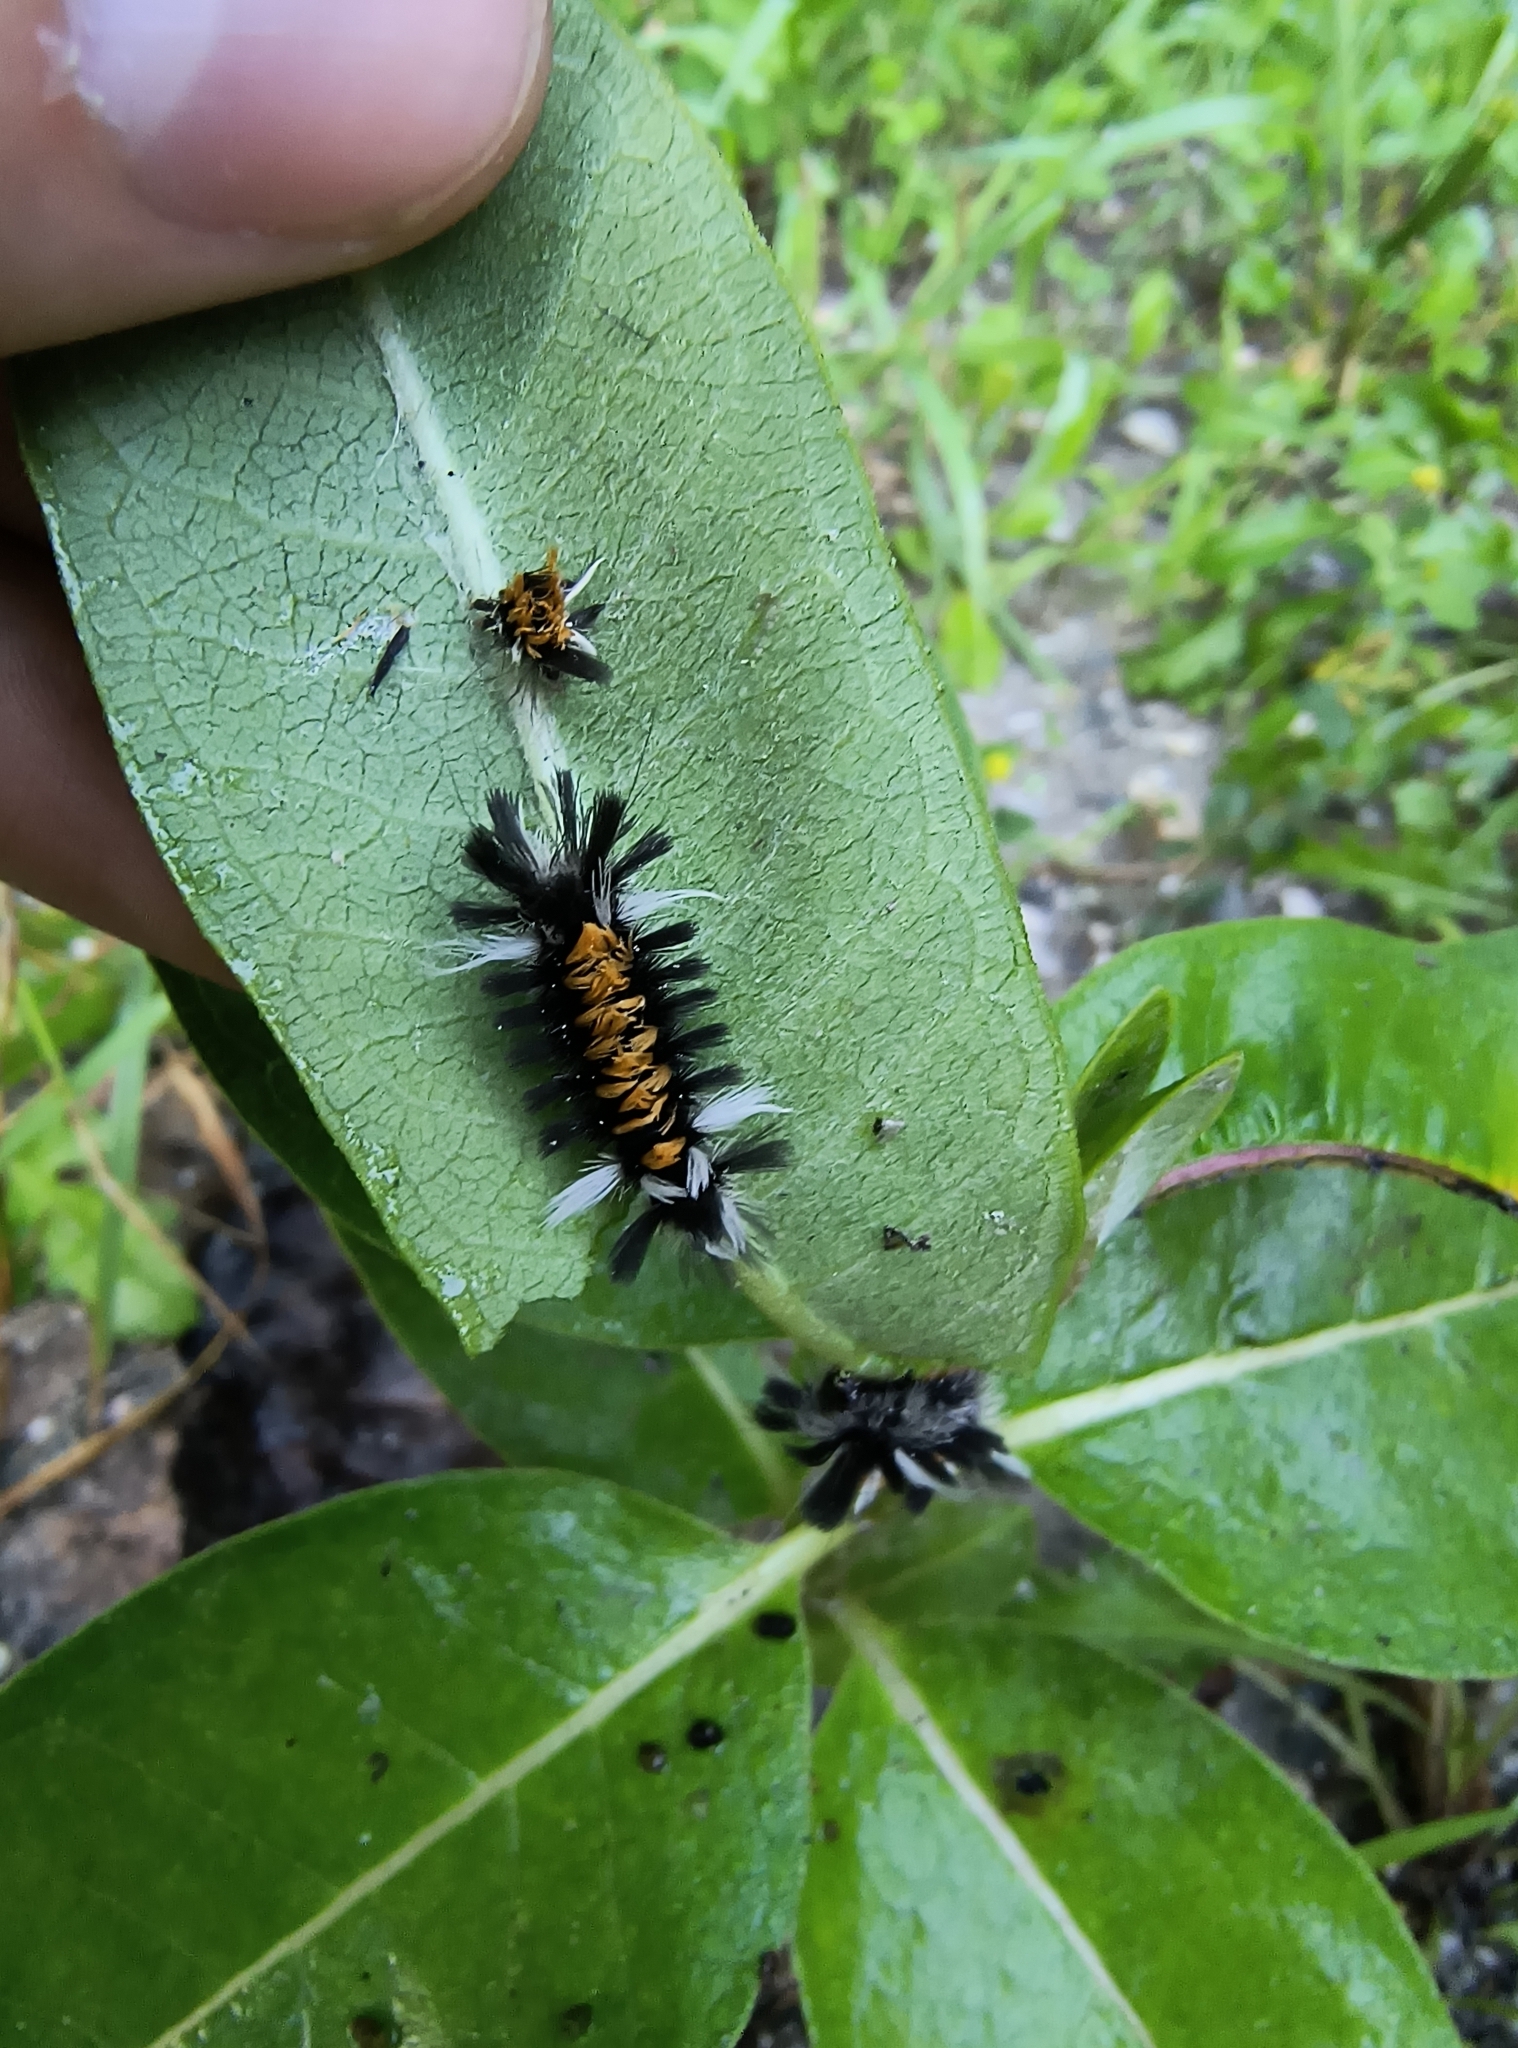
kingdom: Animalia
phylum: Arthropoda
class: Insecta
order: Lepidoptera
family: Erebidae
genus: Euchaetes
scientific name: Euchaetes egle
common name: Milkweed tussock moth
